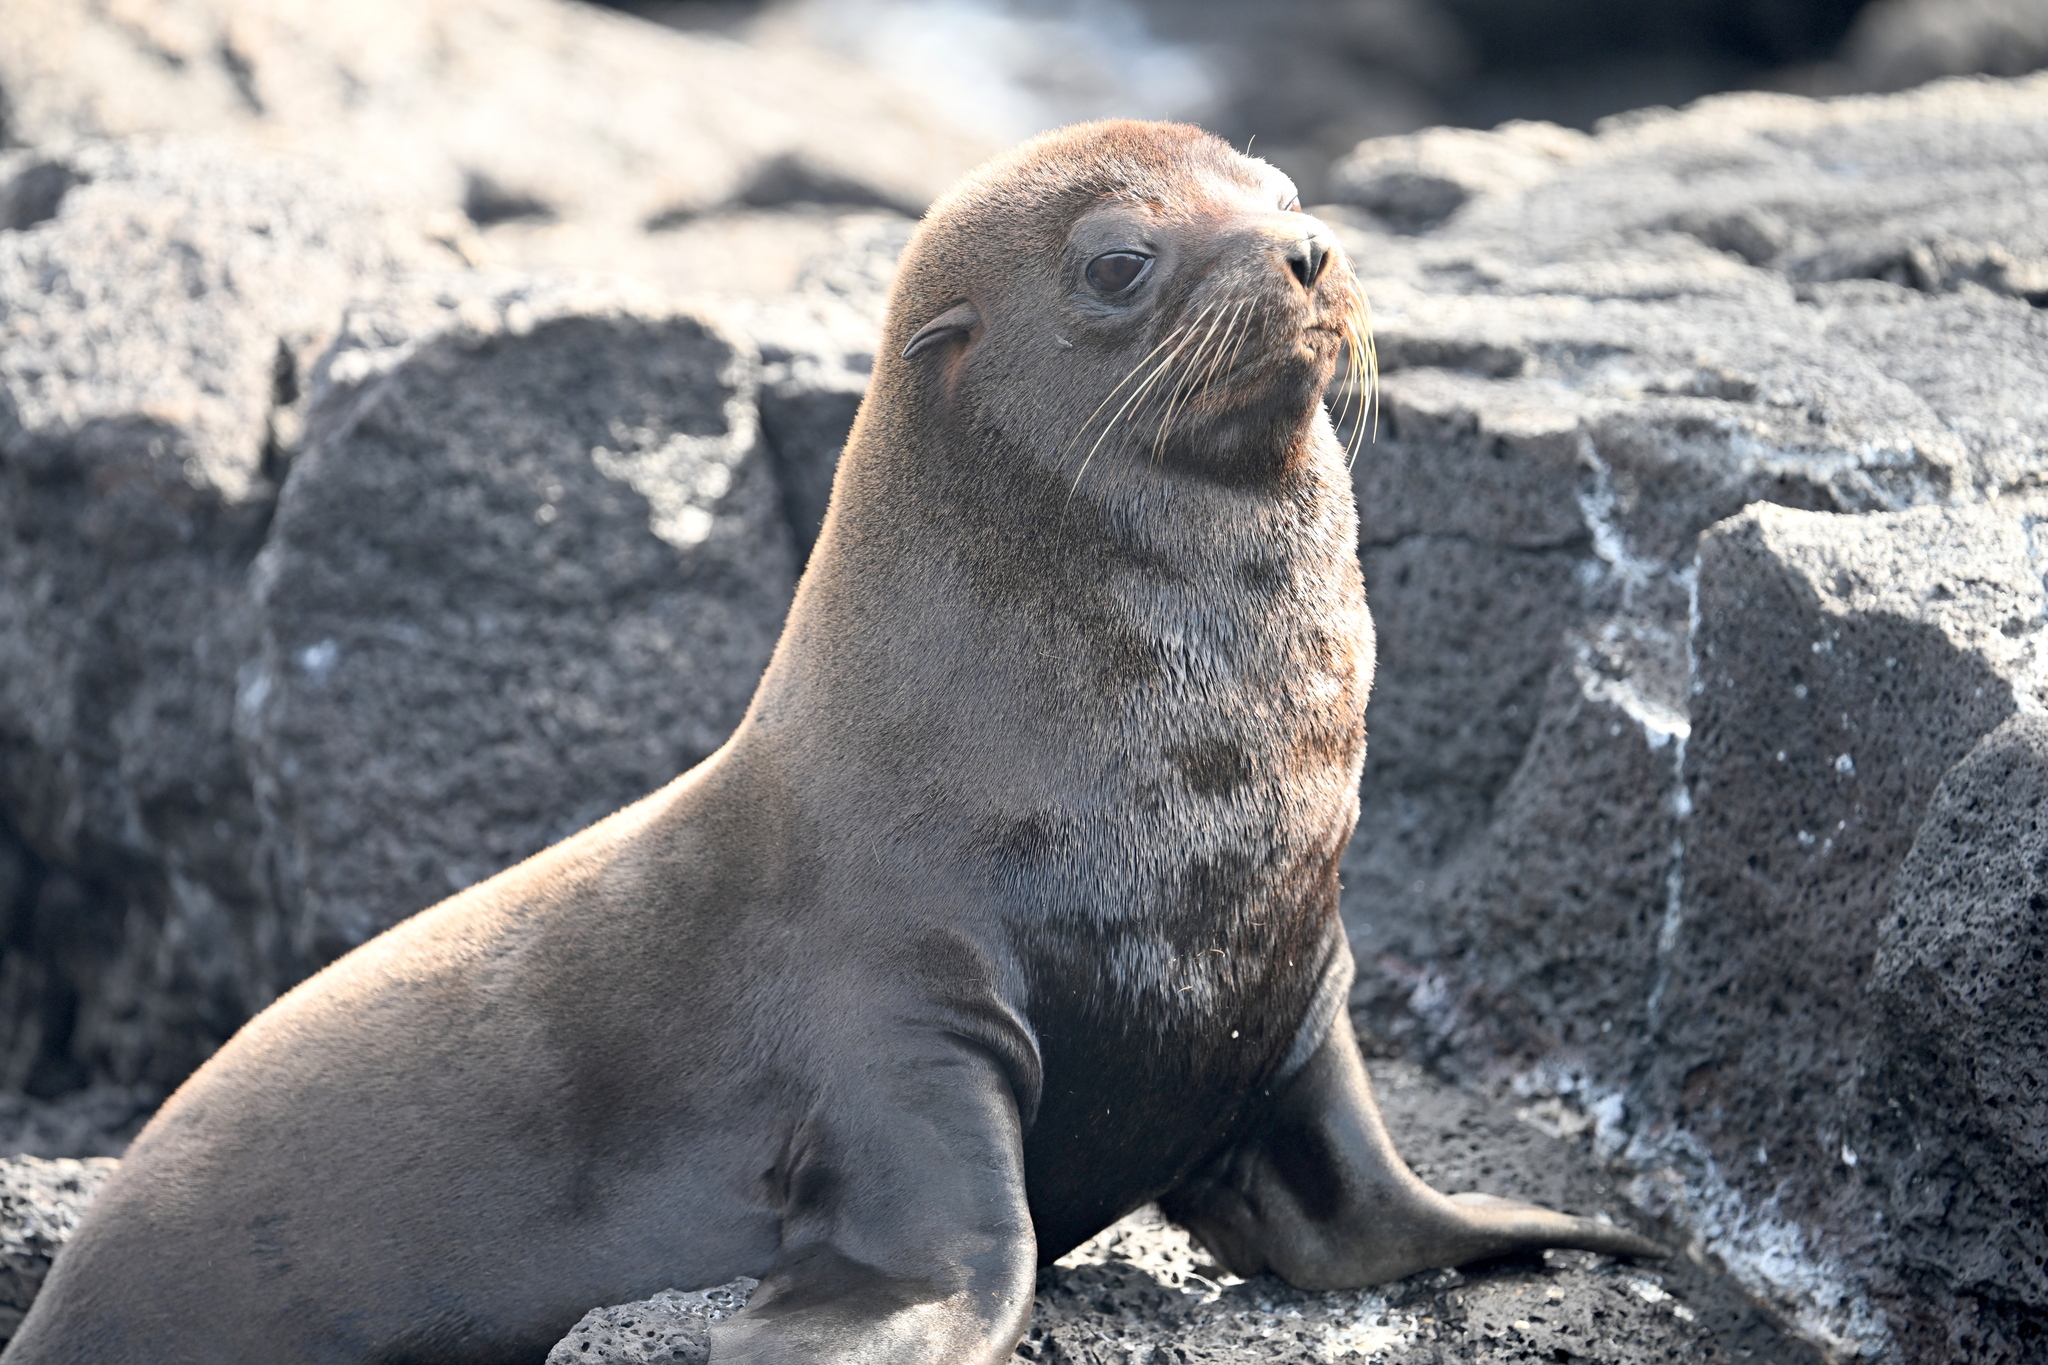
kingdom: Animalia
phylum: Chordata
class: Mammalia
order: Carnivora
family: Otariidae
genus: Arctocephalus
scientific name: Arctocephalus galapagoensis
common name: Galapagos fur seal
